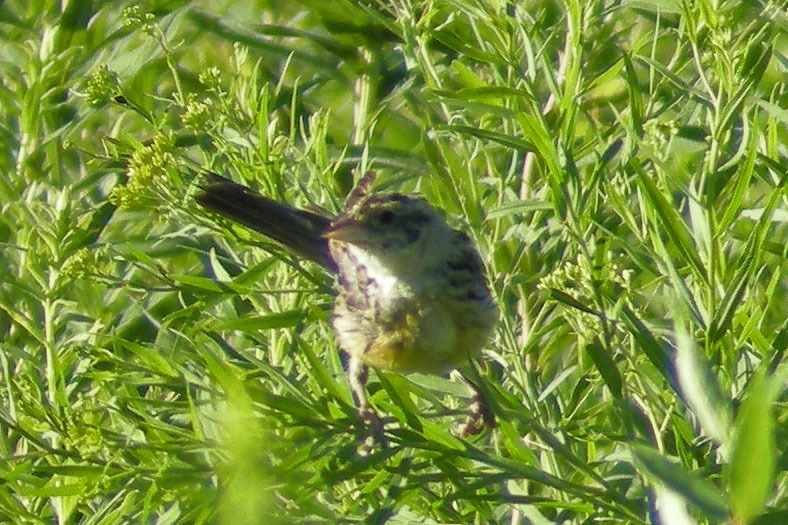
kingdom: Animalia
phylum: Chordata
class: Aves
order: Passeriformes
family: Icteridae
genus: Dolichonyx
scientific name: Dolichonyx oryzivorus
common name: Bobolink
